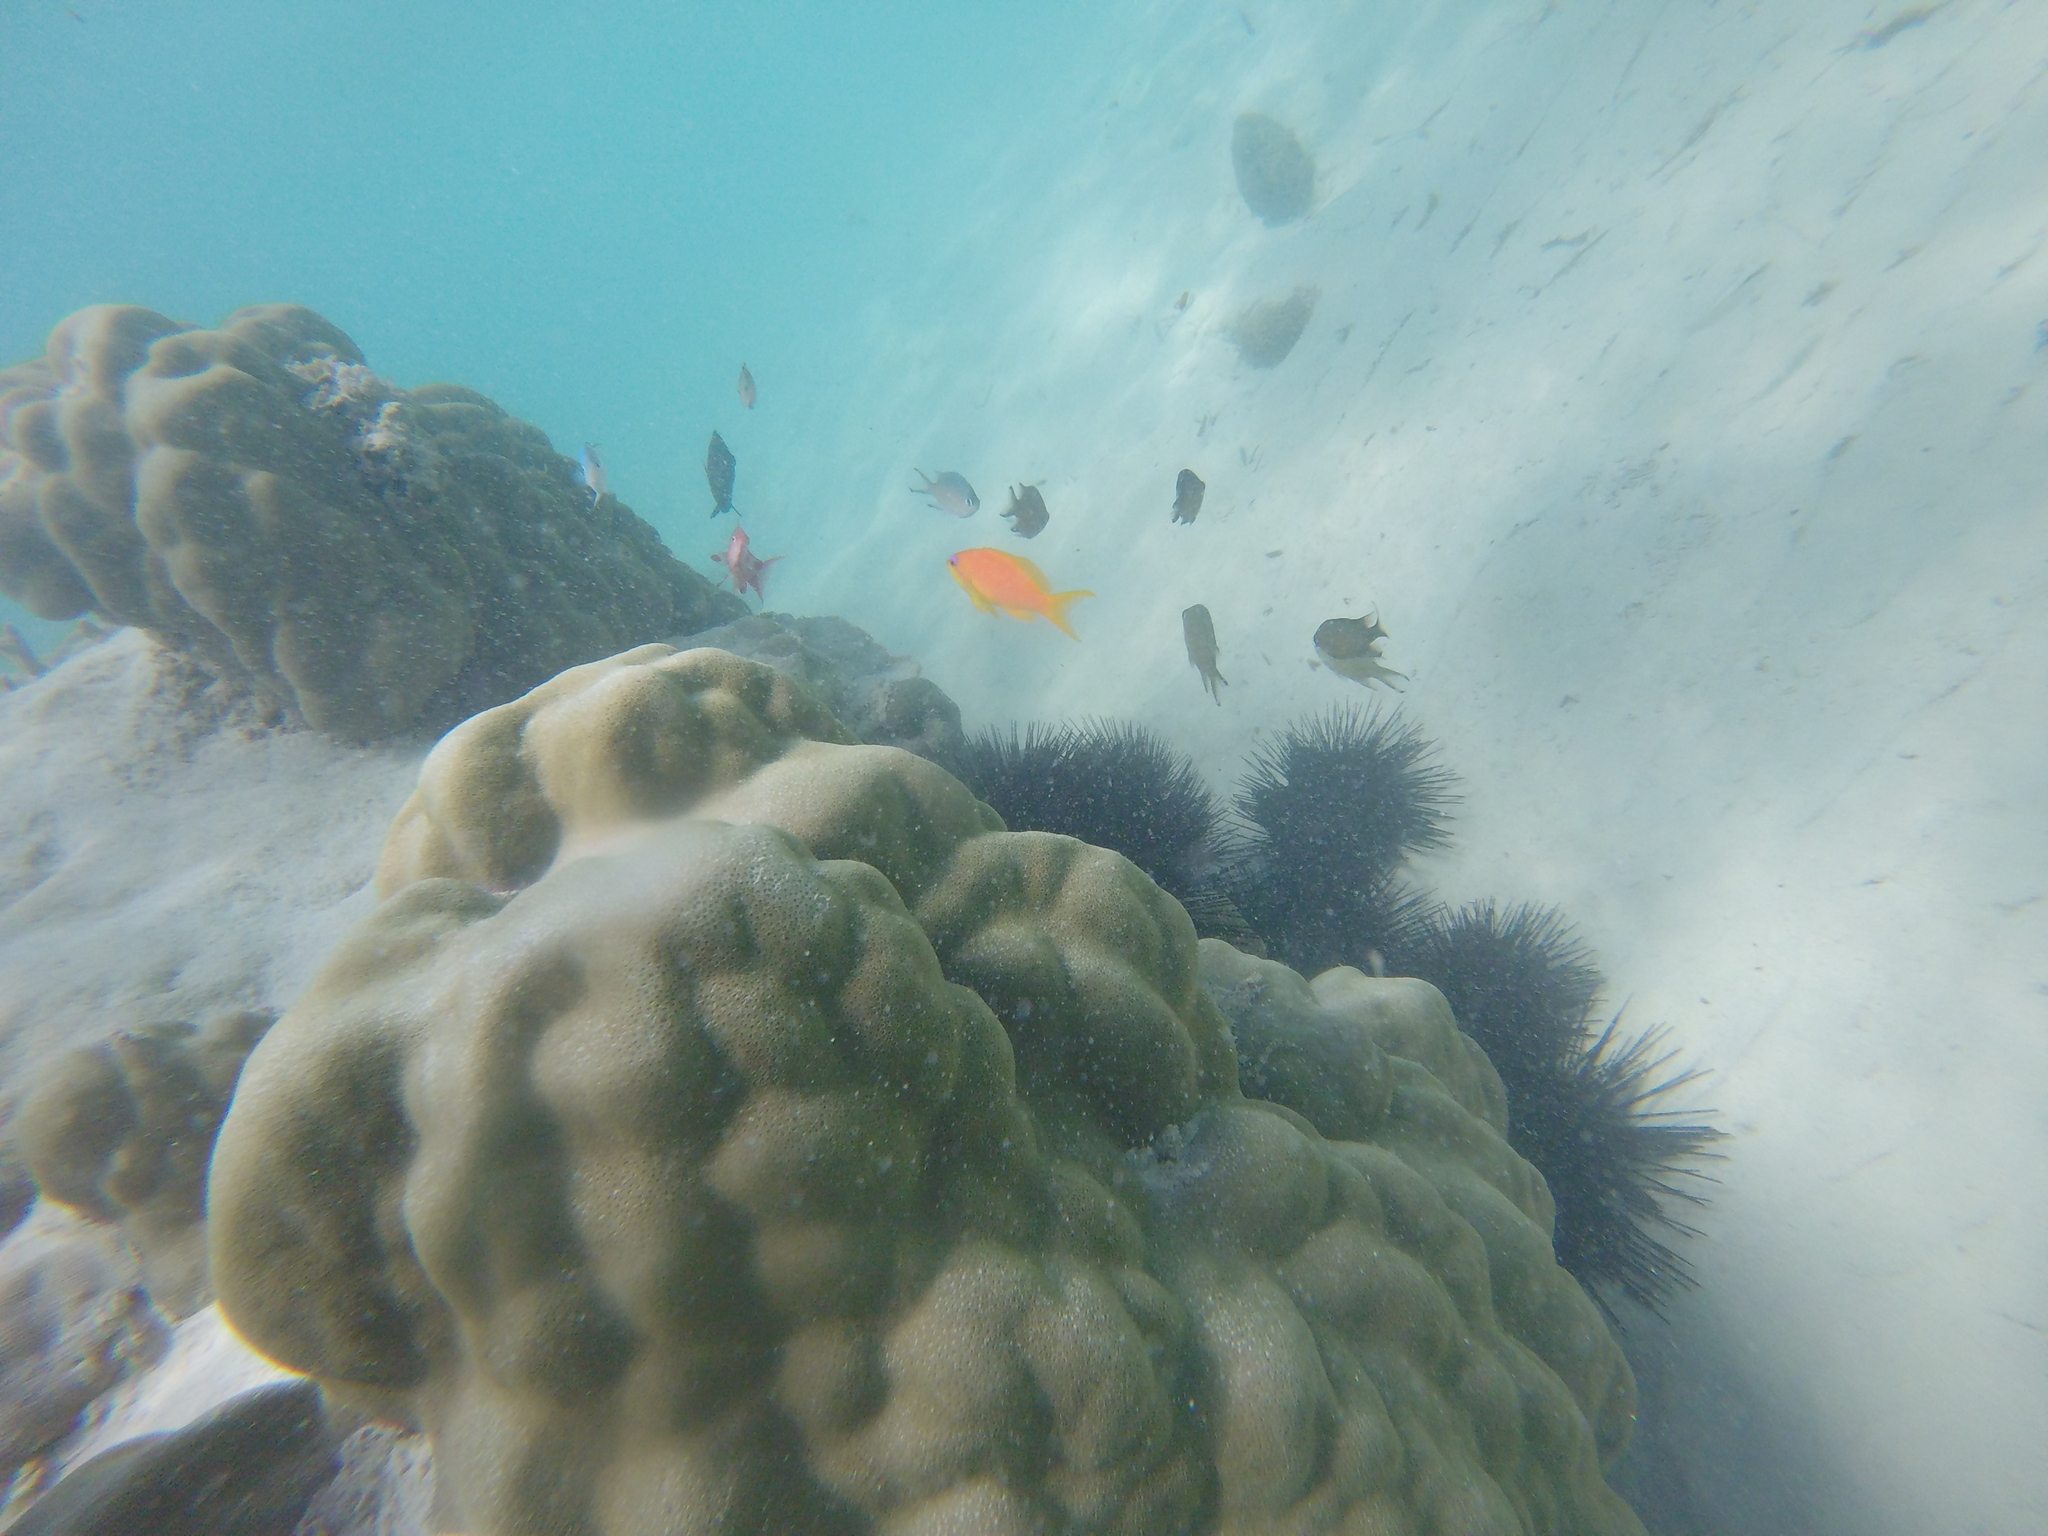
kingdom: Animalia
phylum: Chordata
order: Perciformes
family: Serranidae
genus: Pseudanthias
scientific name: Pseudanthias squamipinnis
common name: Scalefin anthias
